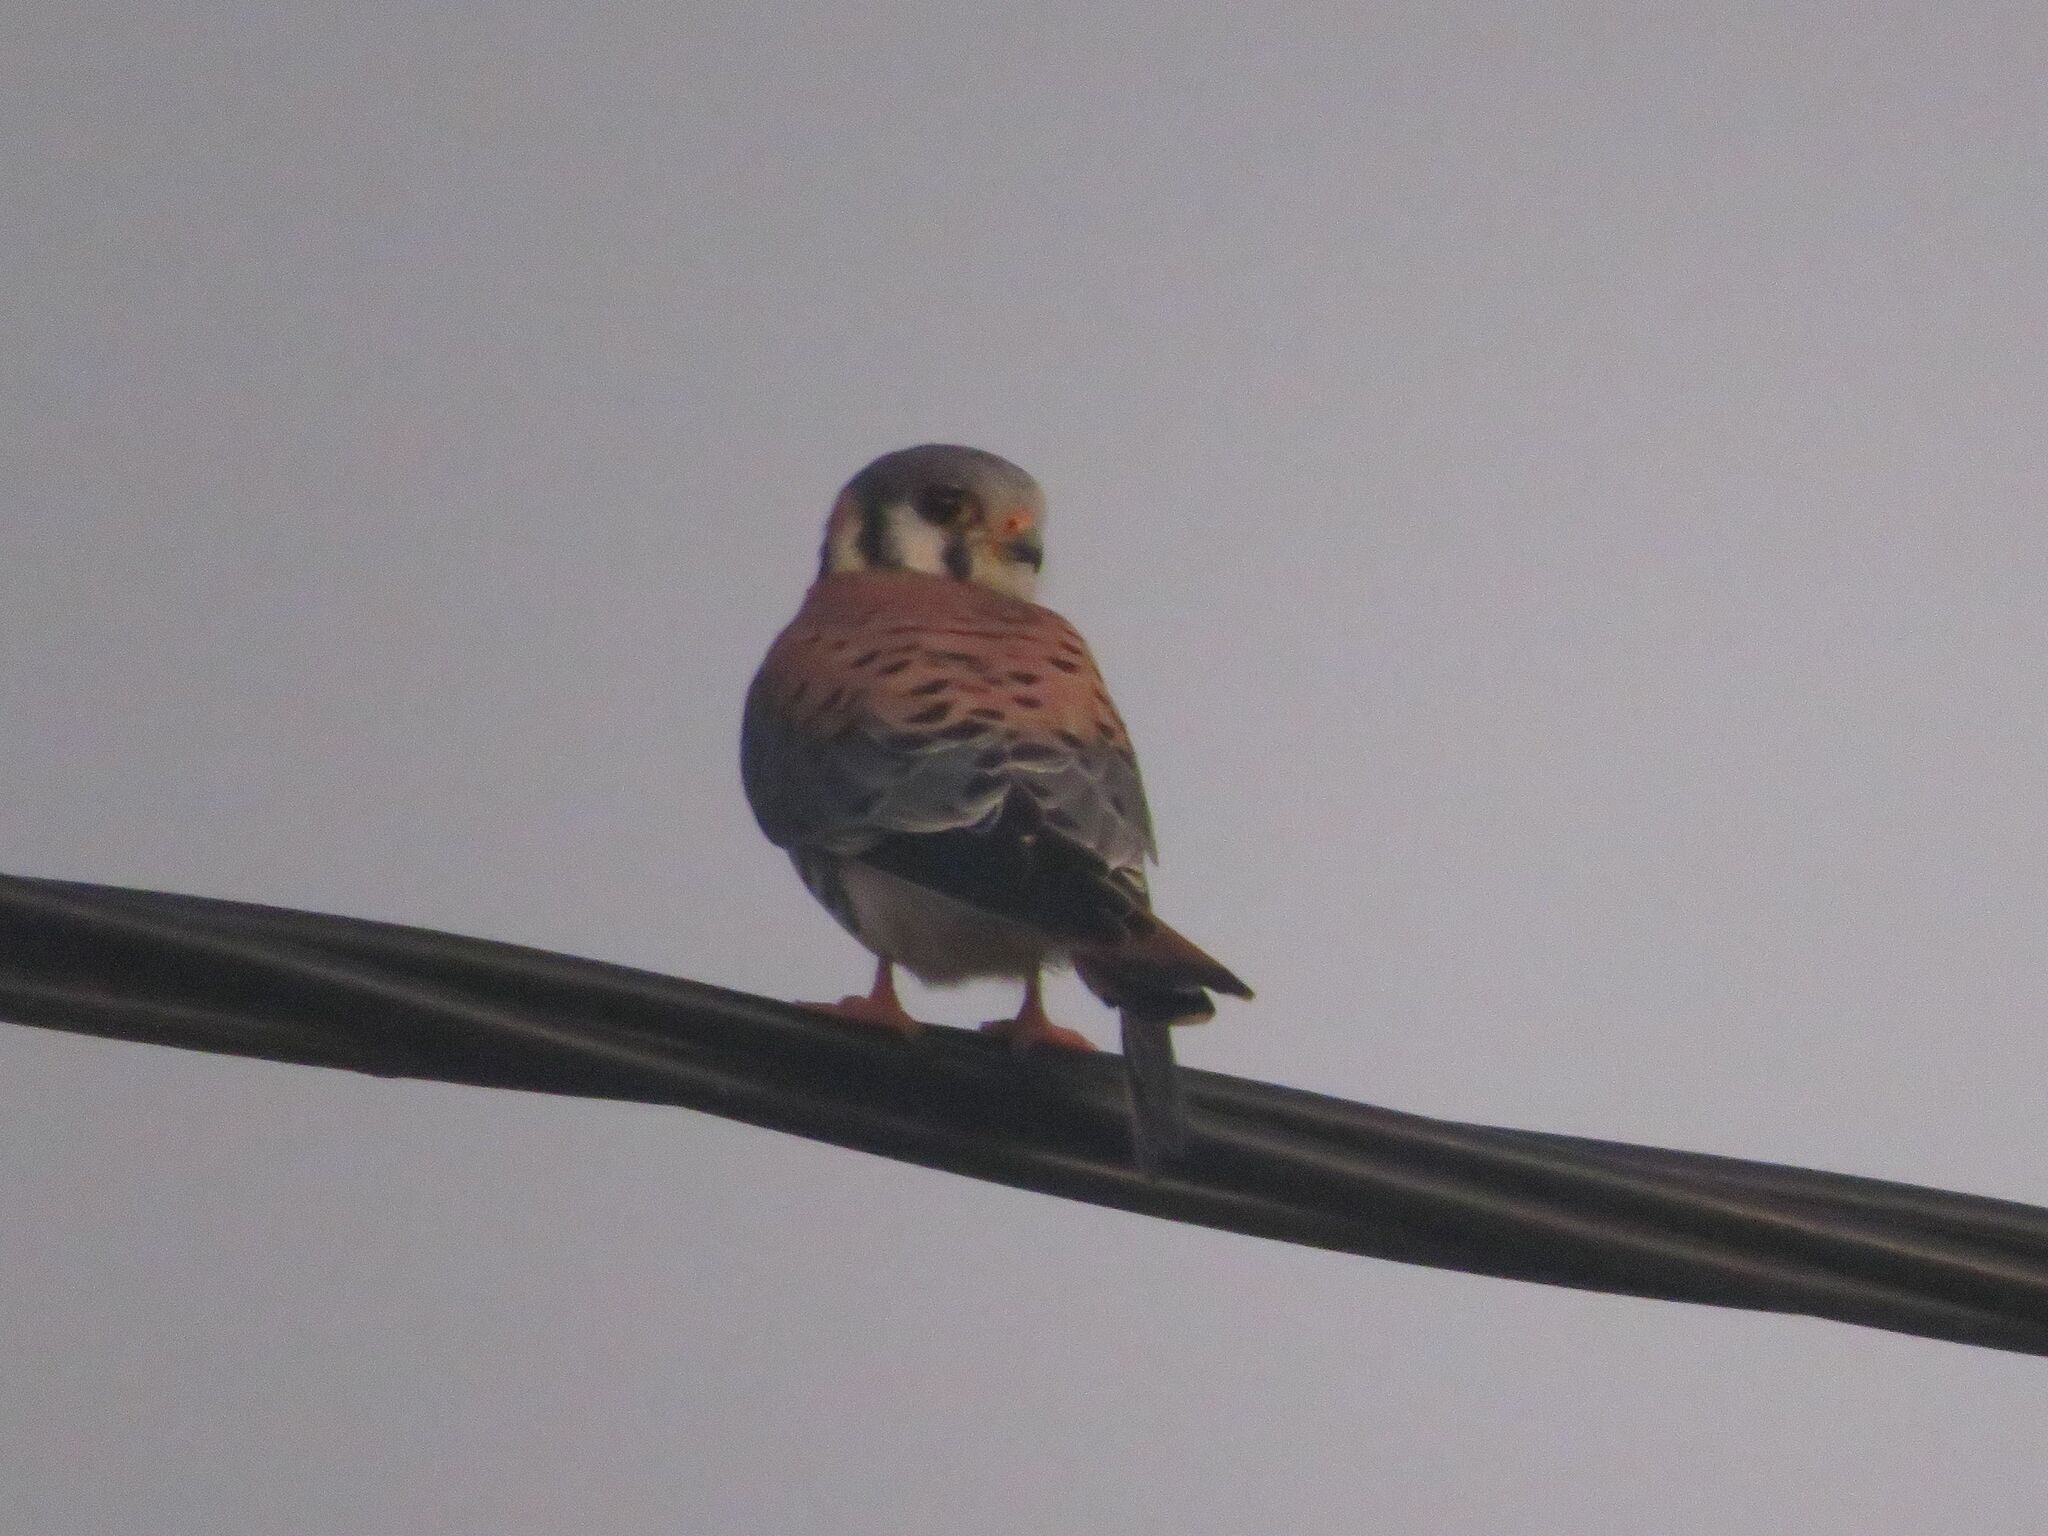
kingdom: Animalia
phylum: Chordata
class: Aves
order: Falconiformes
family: Falconidae
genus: Falco
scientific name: Falco sparverius
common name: American kestrel
